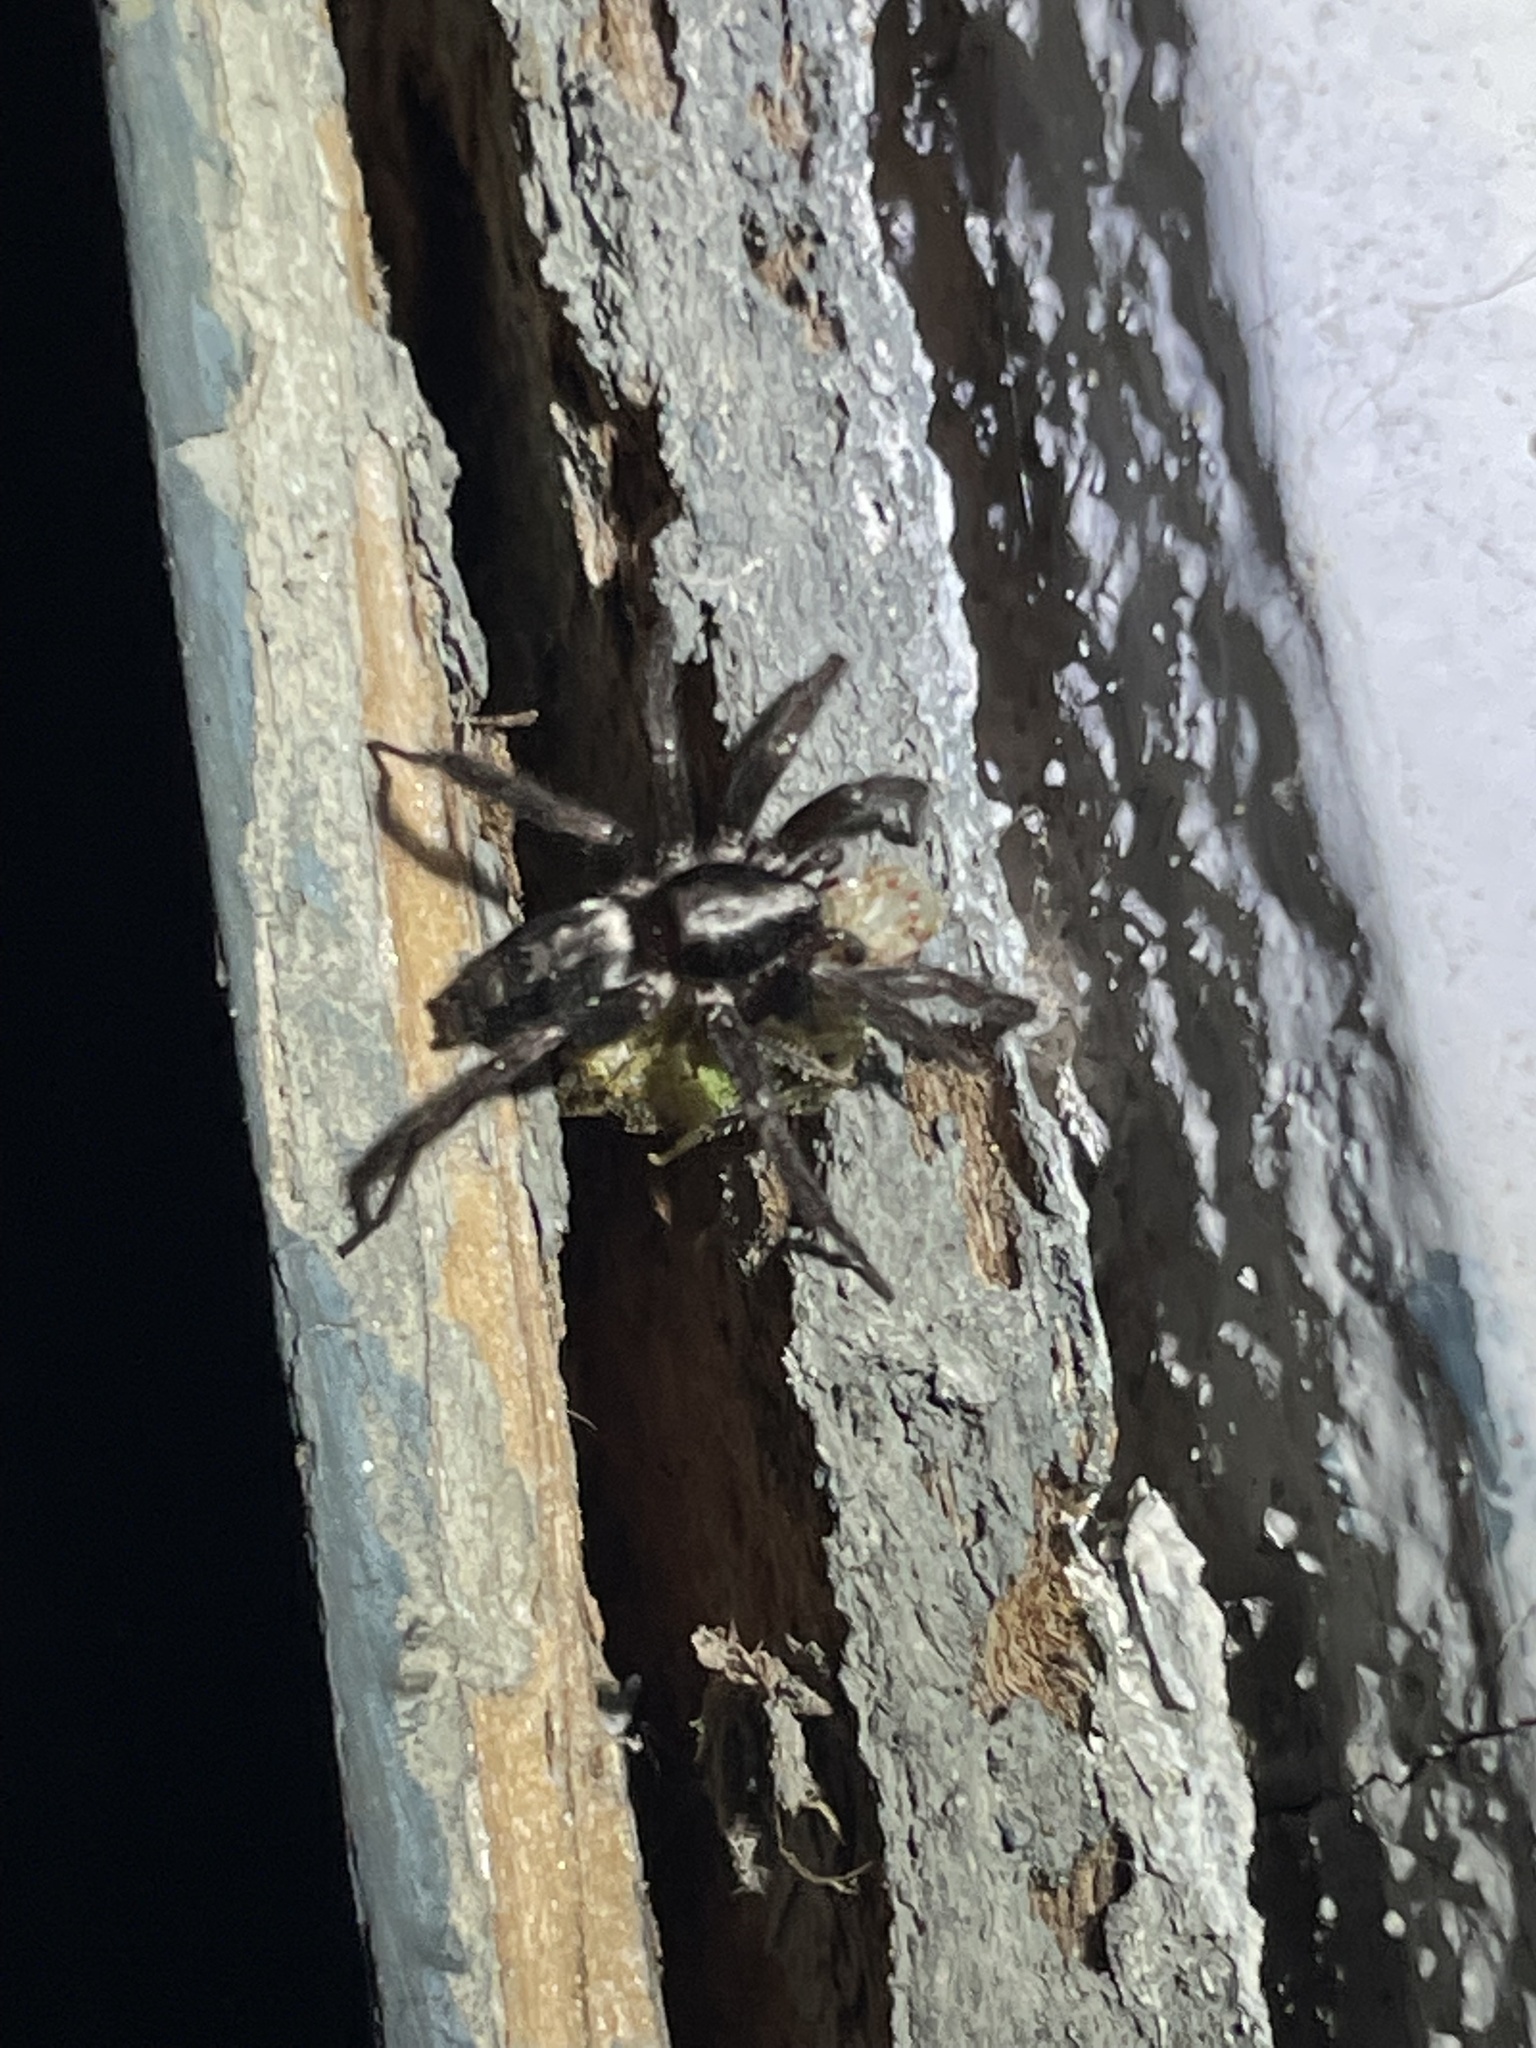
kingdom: Animalia
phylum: Arthropoda
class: Arachnida
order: Araneae
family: Gnaphosidae
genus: Herpyllus
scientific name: Herpyllus ecclesiasticus
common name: Eastern parson spider
